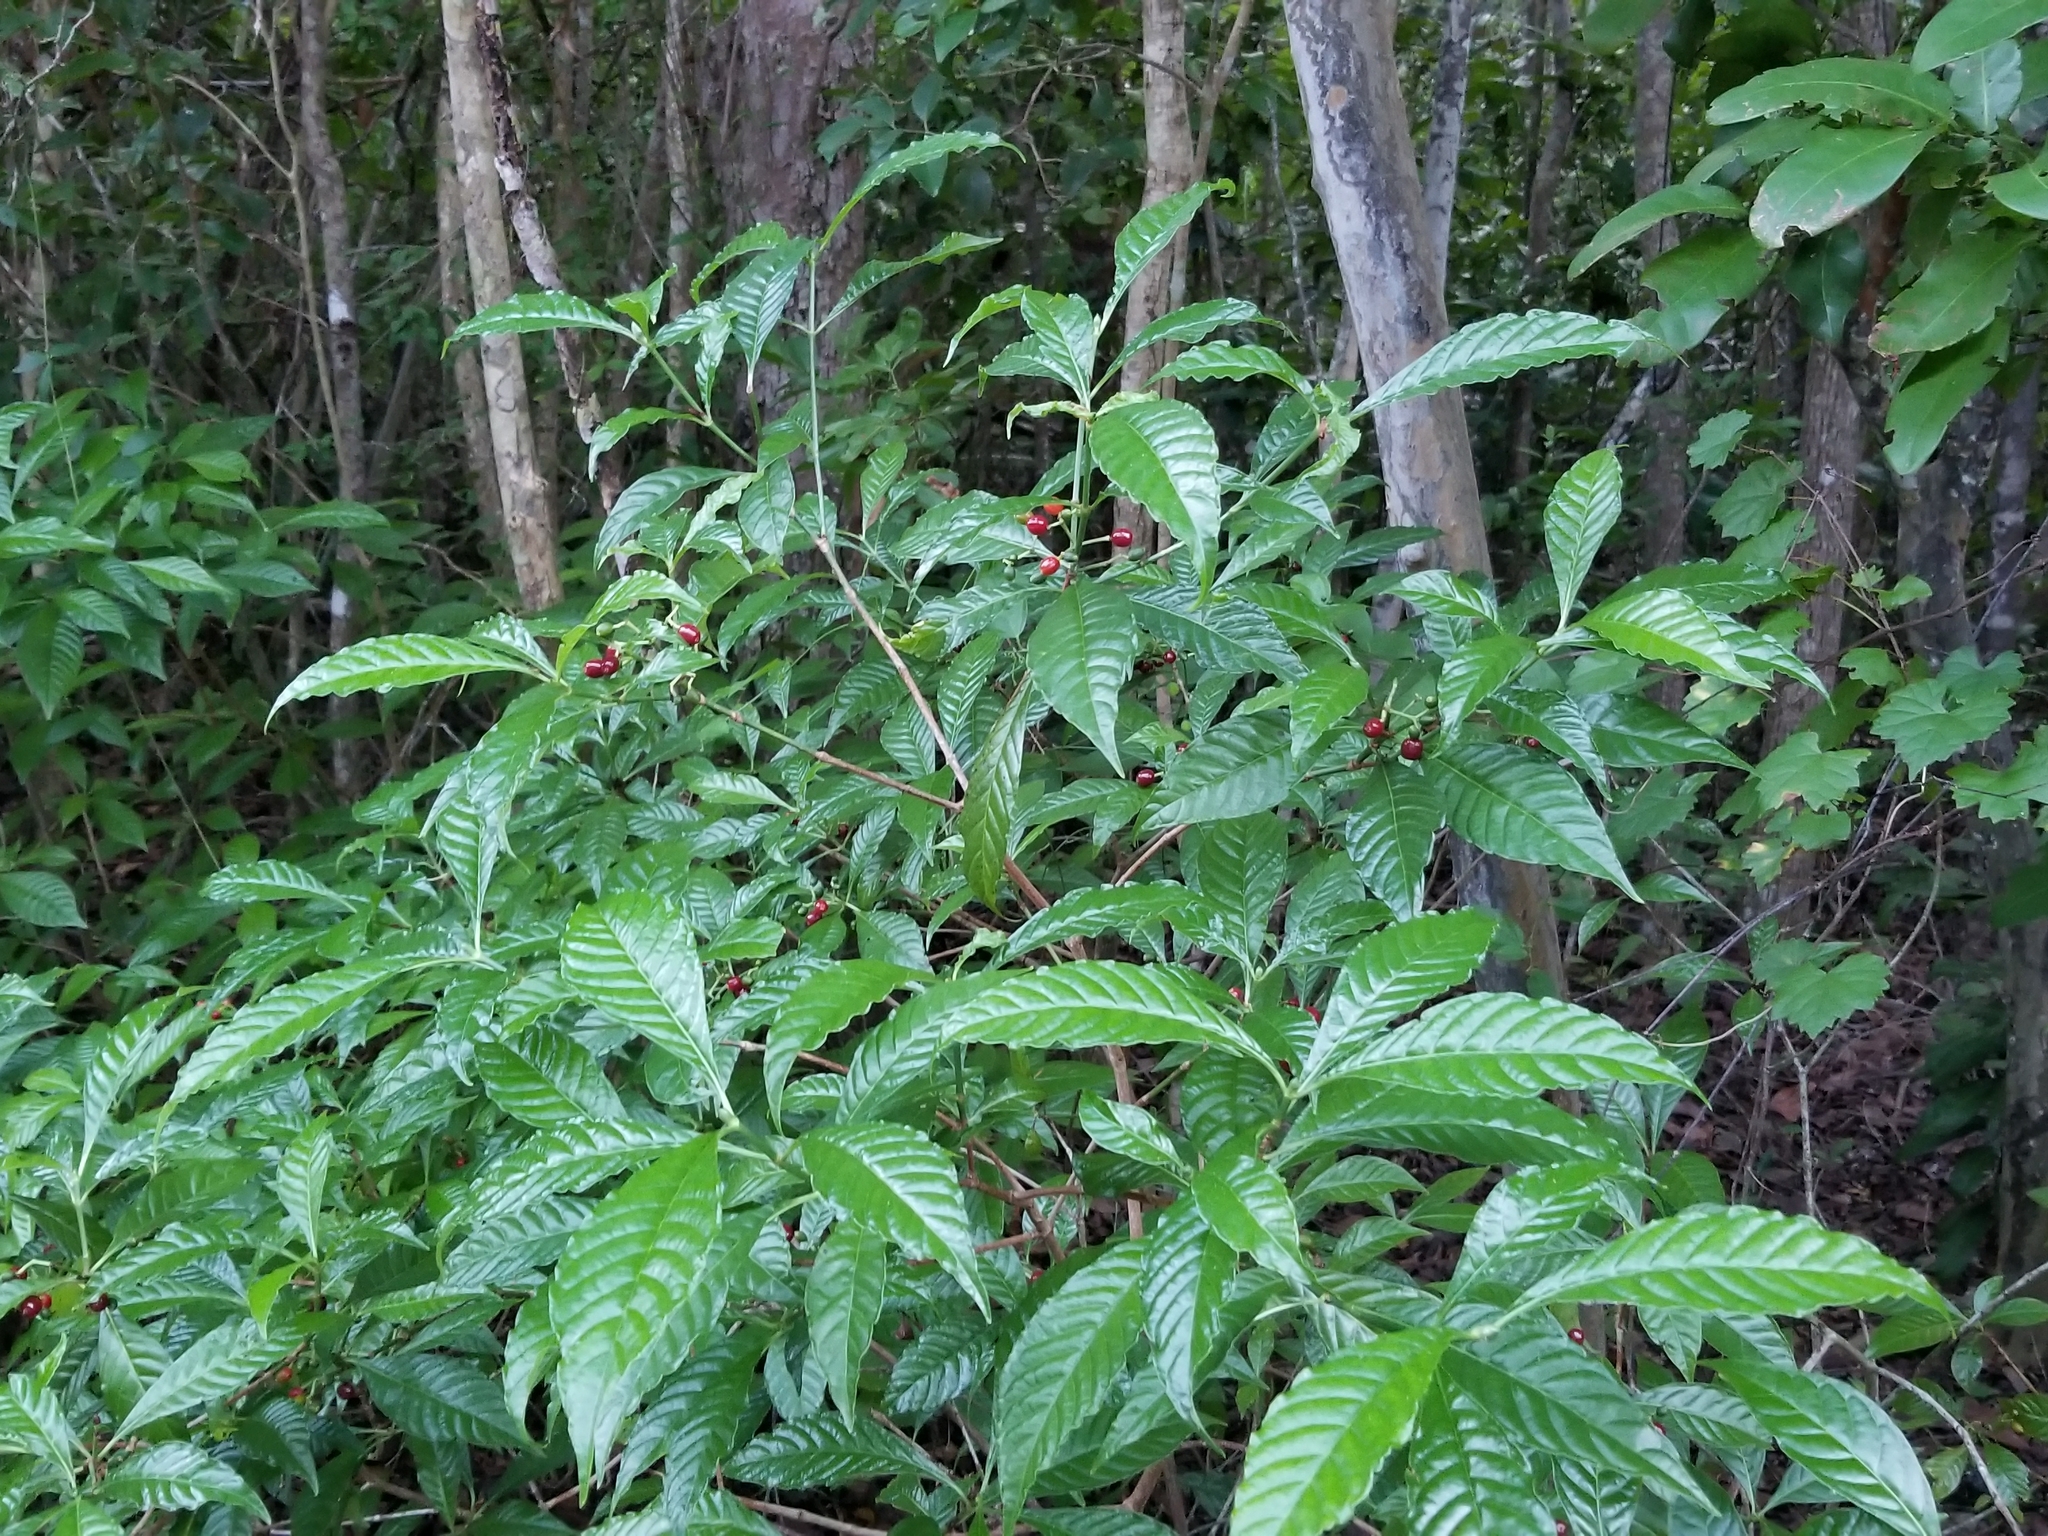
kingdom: Plantae
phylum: Tracheophyta
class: Magnoliopsida
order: Gentianales
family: Rubiaceae
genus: Psychotria
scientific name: Psychotria nervosa
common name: Bastard cankerberry
